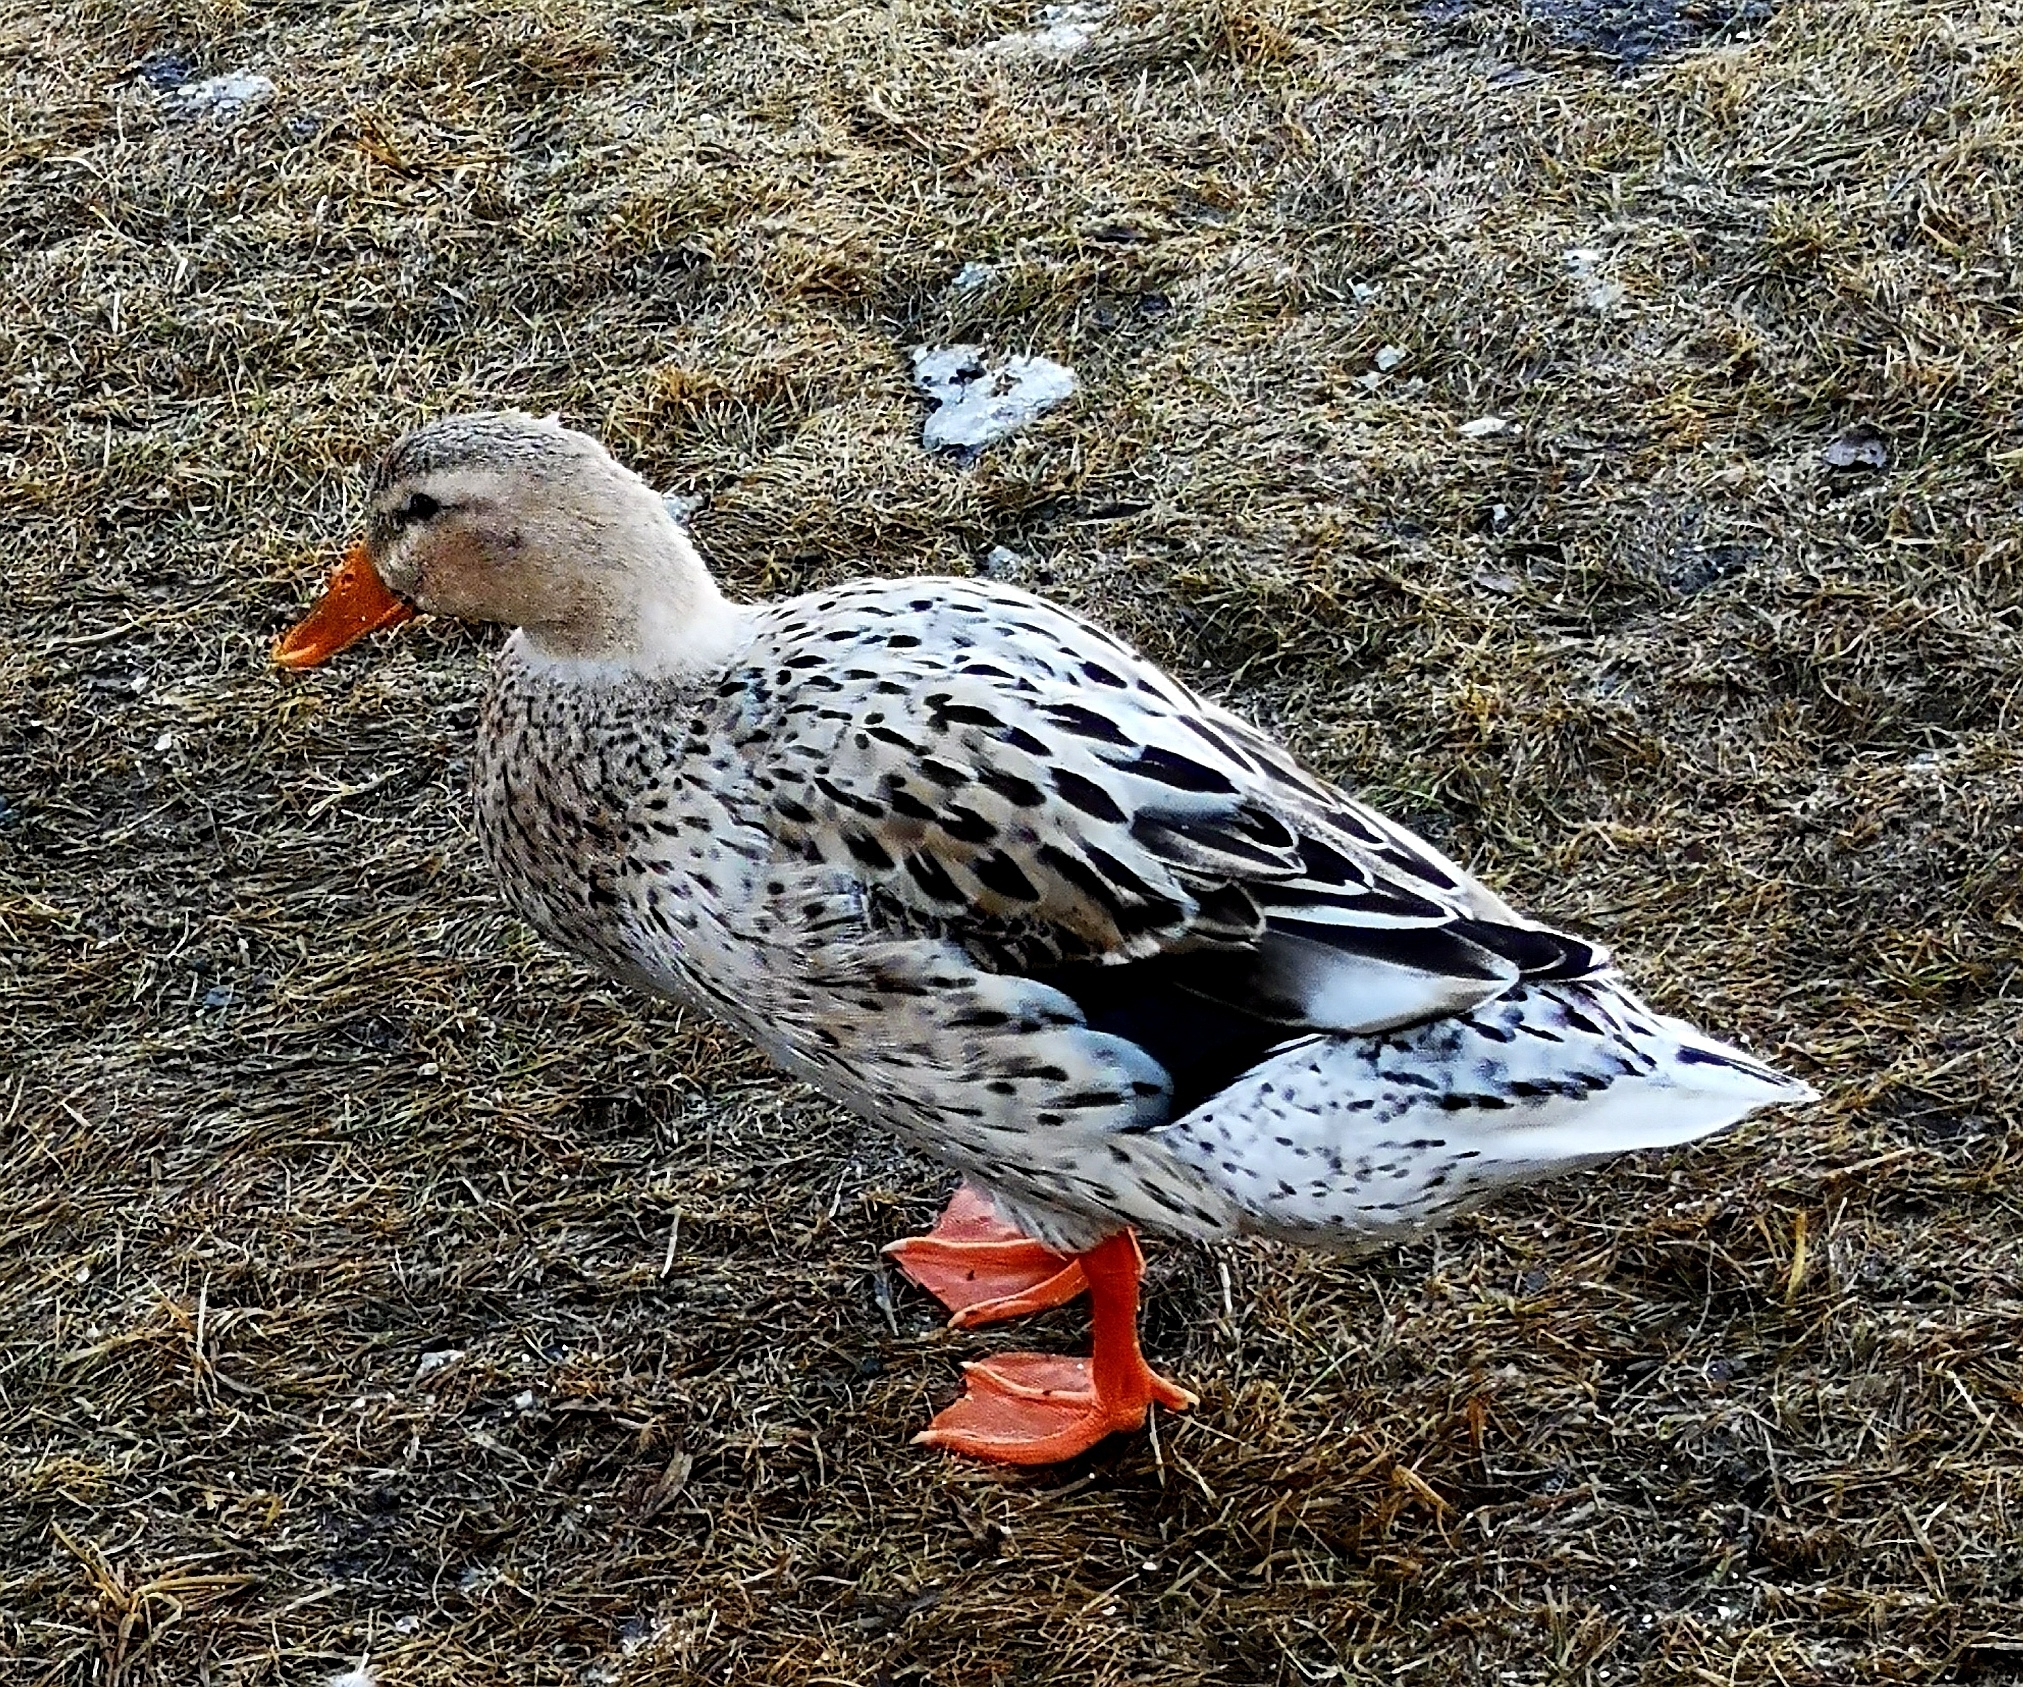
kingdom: Animalia
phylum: Chordata
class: Aves
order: Anseriformes
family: Anatidae
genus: Anas
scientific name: Anas platyrhynchos
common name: Mallard
